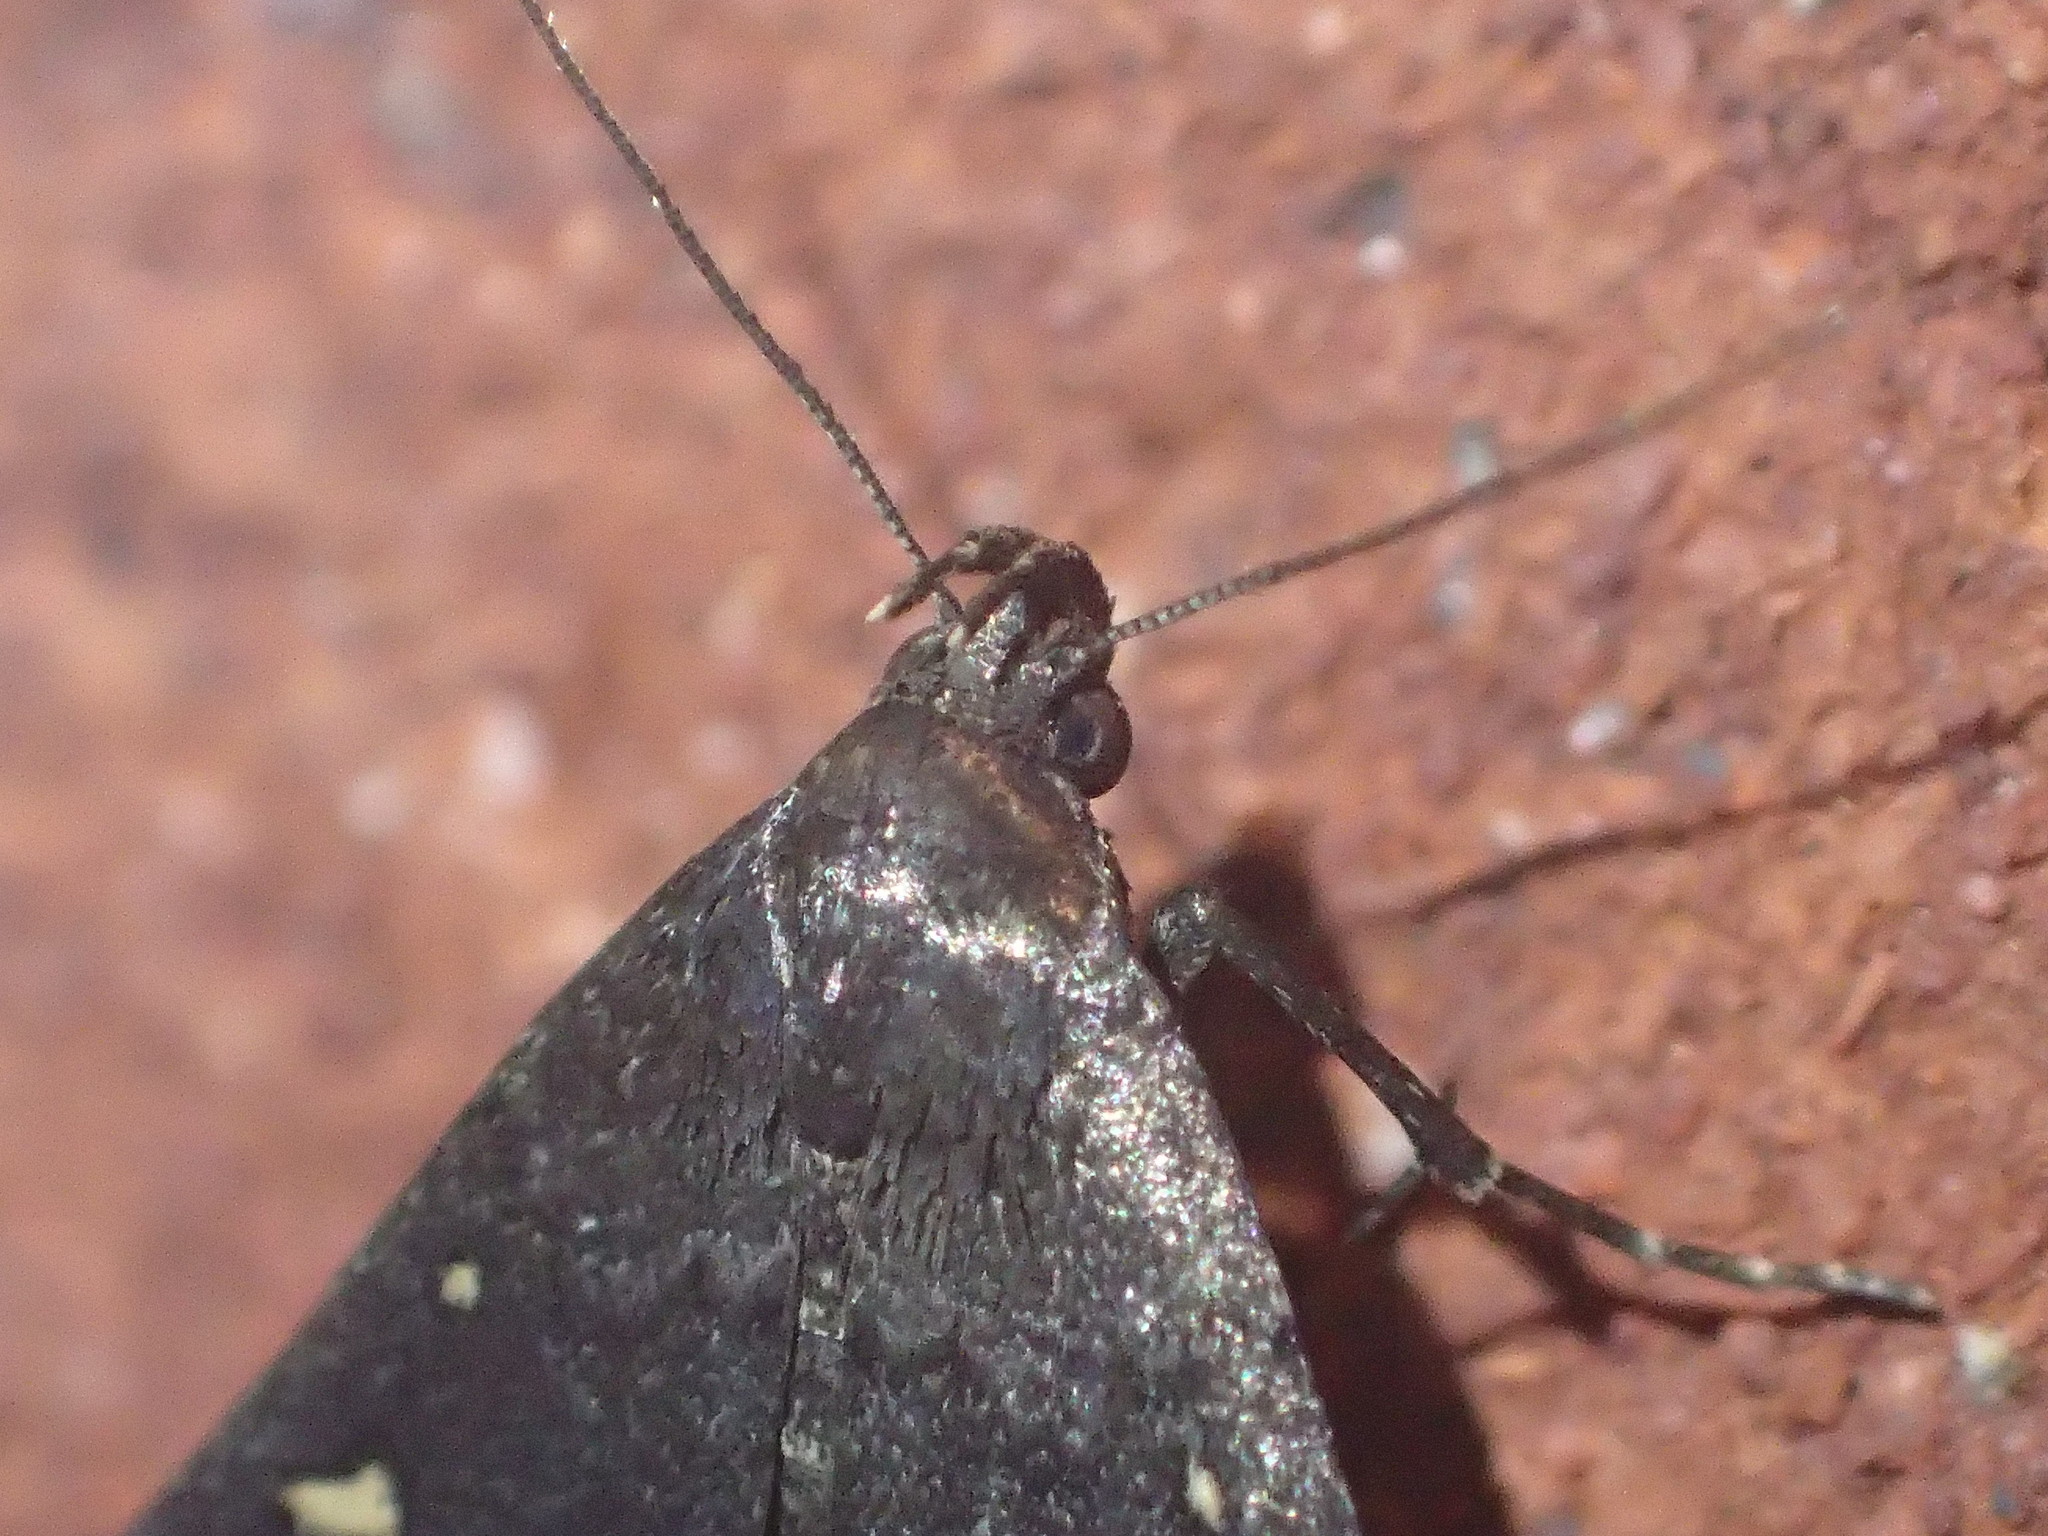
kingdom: Animalia
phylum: Arthropoda
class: Insecta
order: Lepidoptera
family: Erebidae
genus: Tetanolita
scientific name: Tetanolita mynesalis
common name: Smoky tetanolita moth
